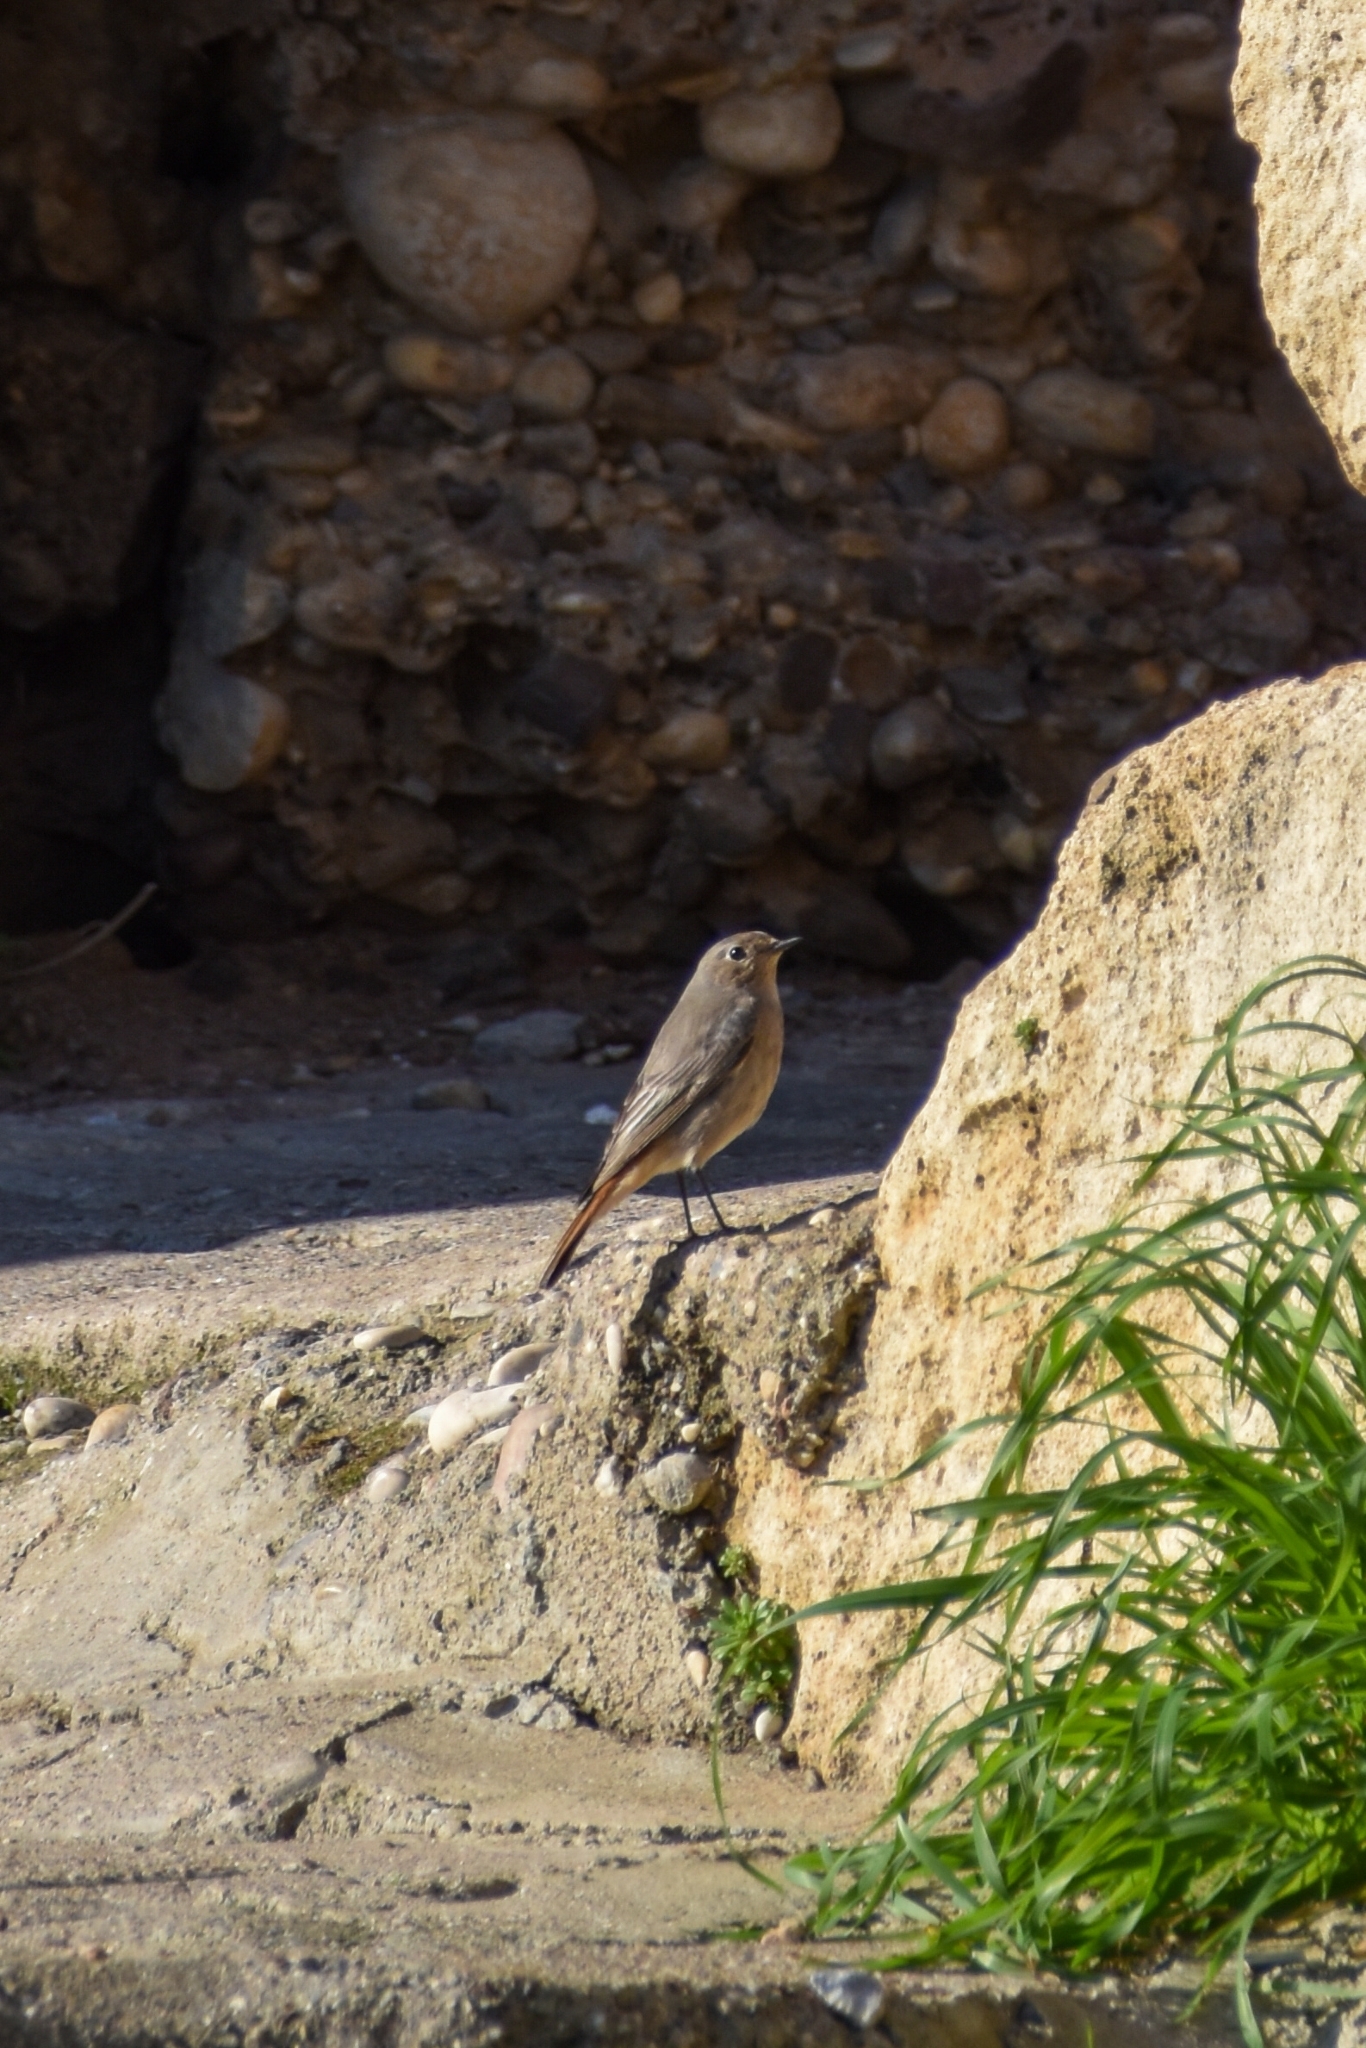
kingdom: Animalia
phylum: Chordata
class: Aves
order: Passeriformes
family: Muscicapidae
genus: Phoenicurus
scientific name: Phoenicurus ochruros
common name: Black redstart
